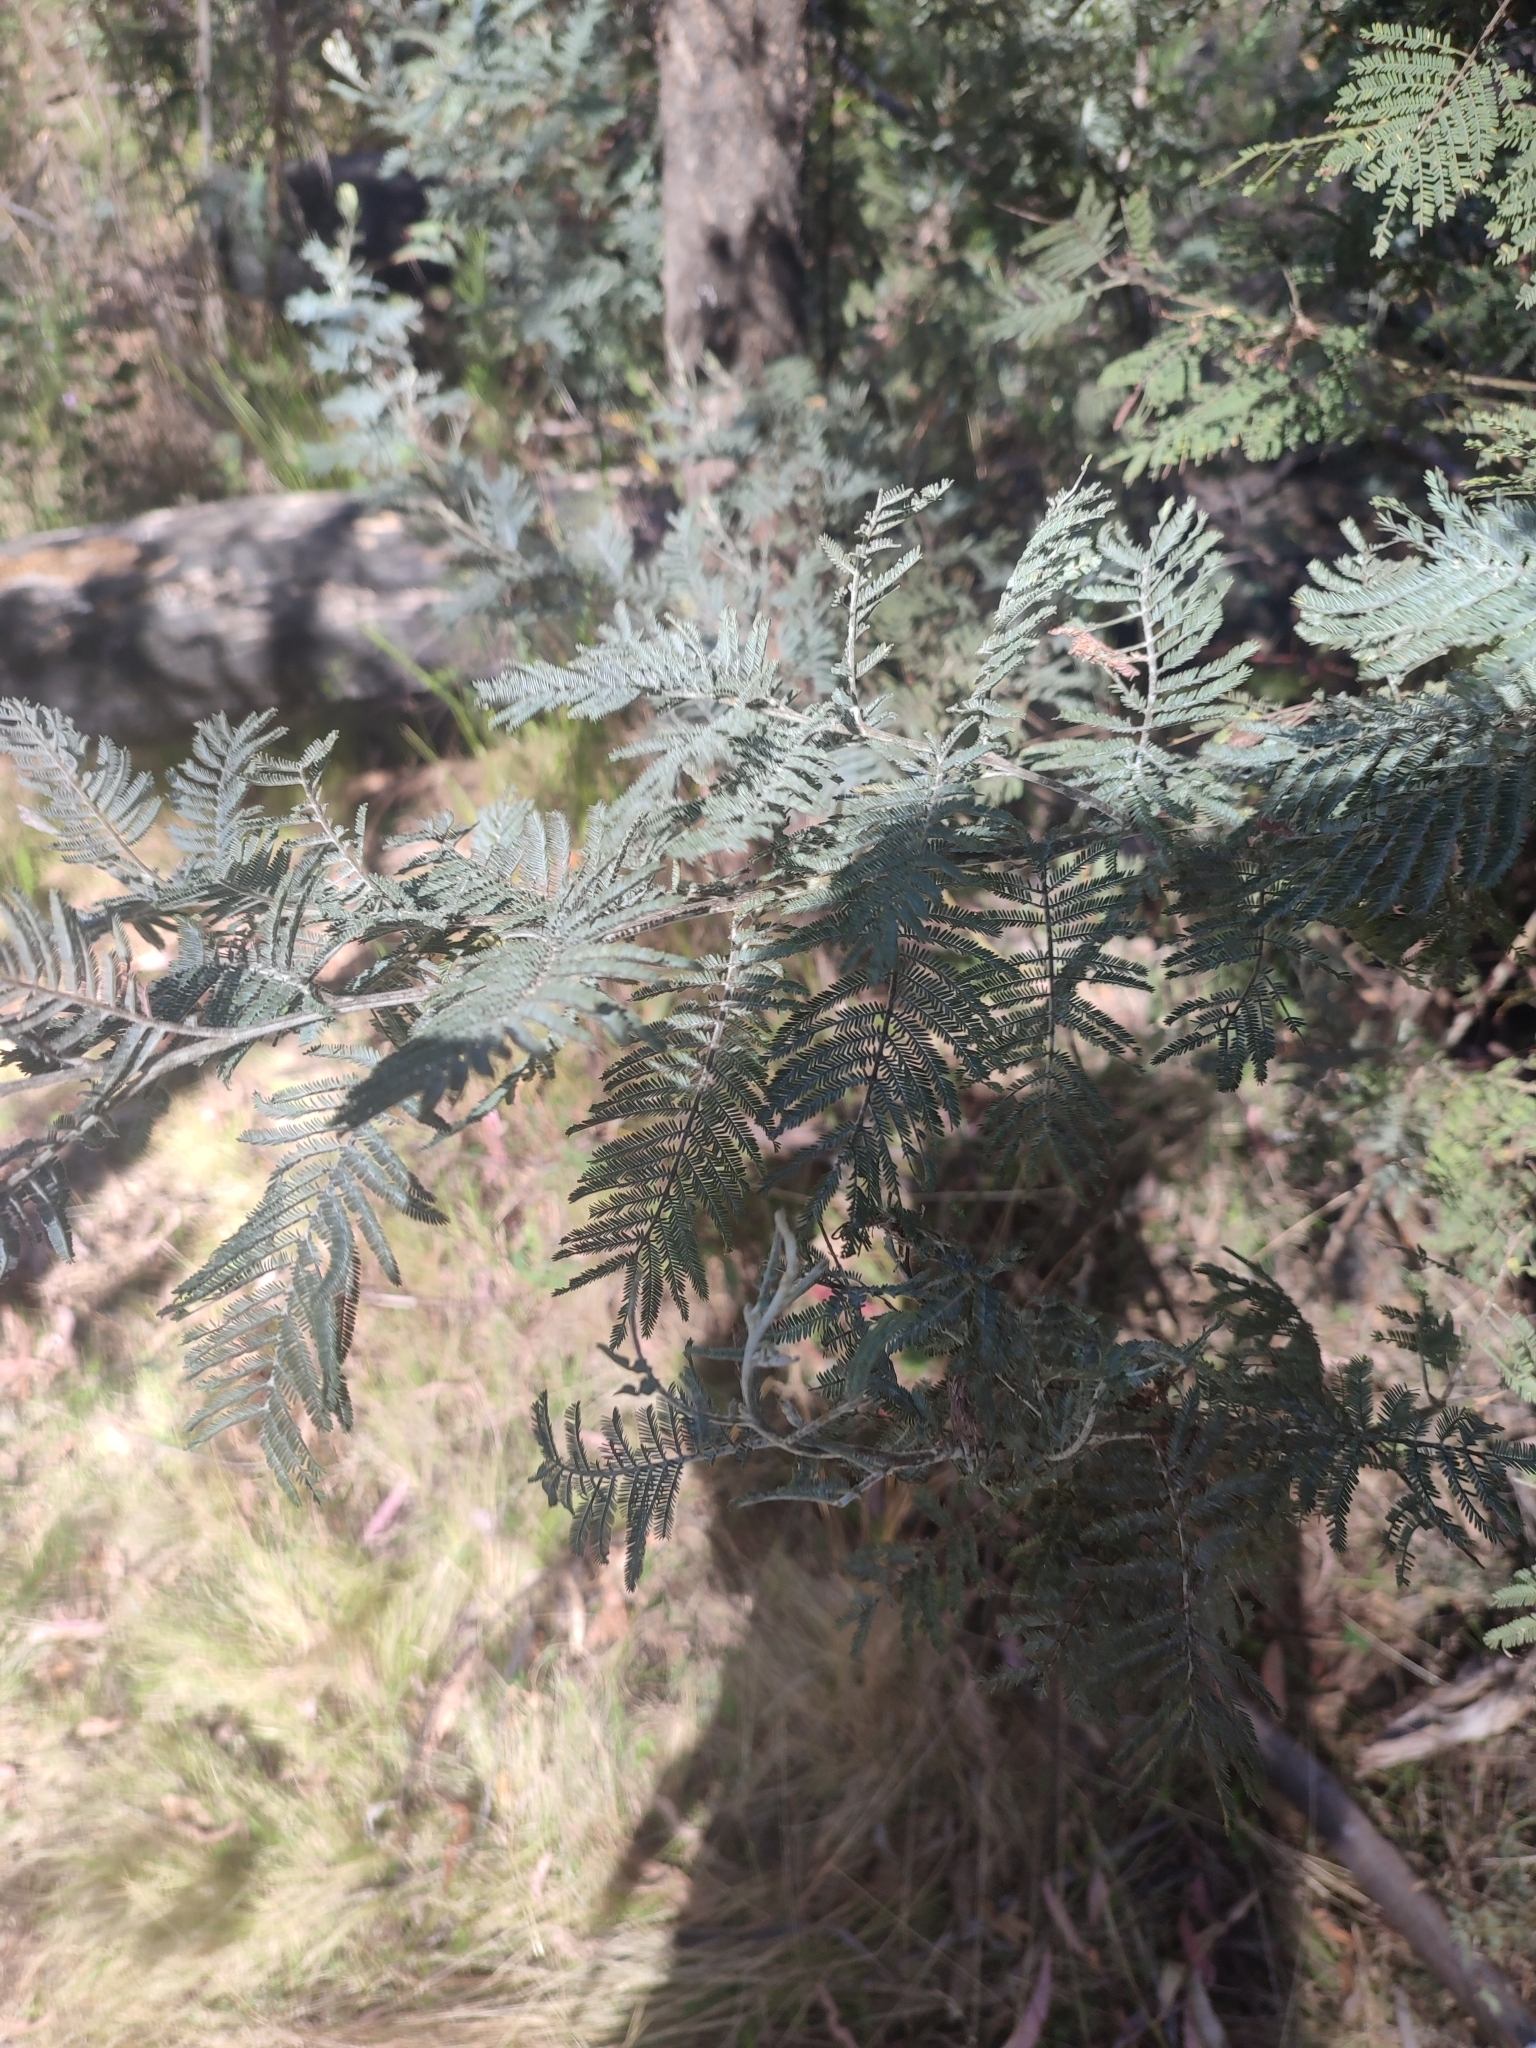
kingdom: Plantae
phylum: Tracheophyta
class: Magnoliopsida
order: Fabales
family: Fabaceae
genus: Acacia
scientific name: Acacia dealbata
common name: Silver wattle
